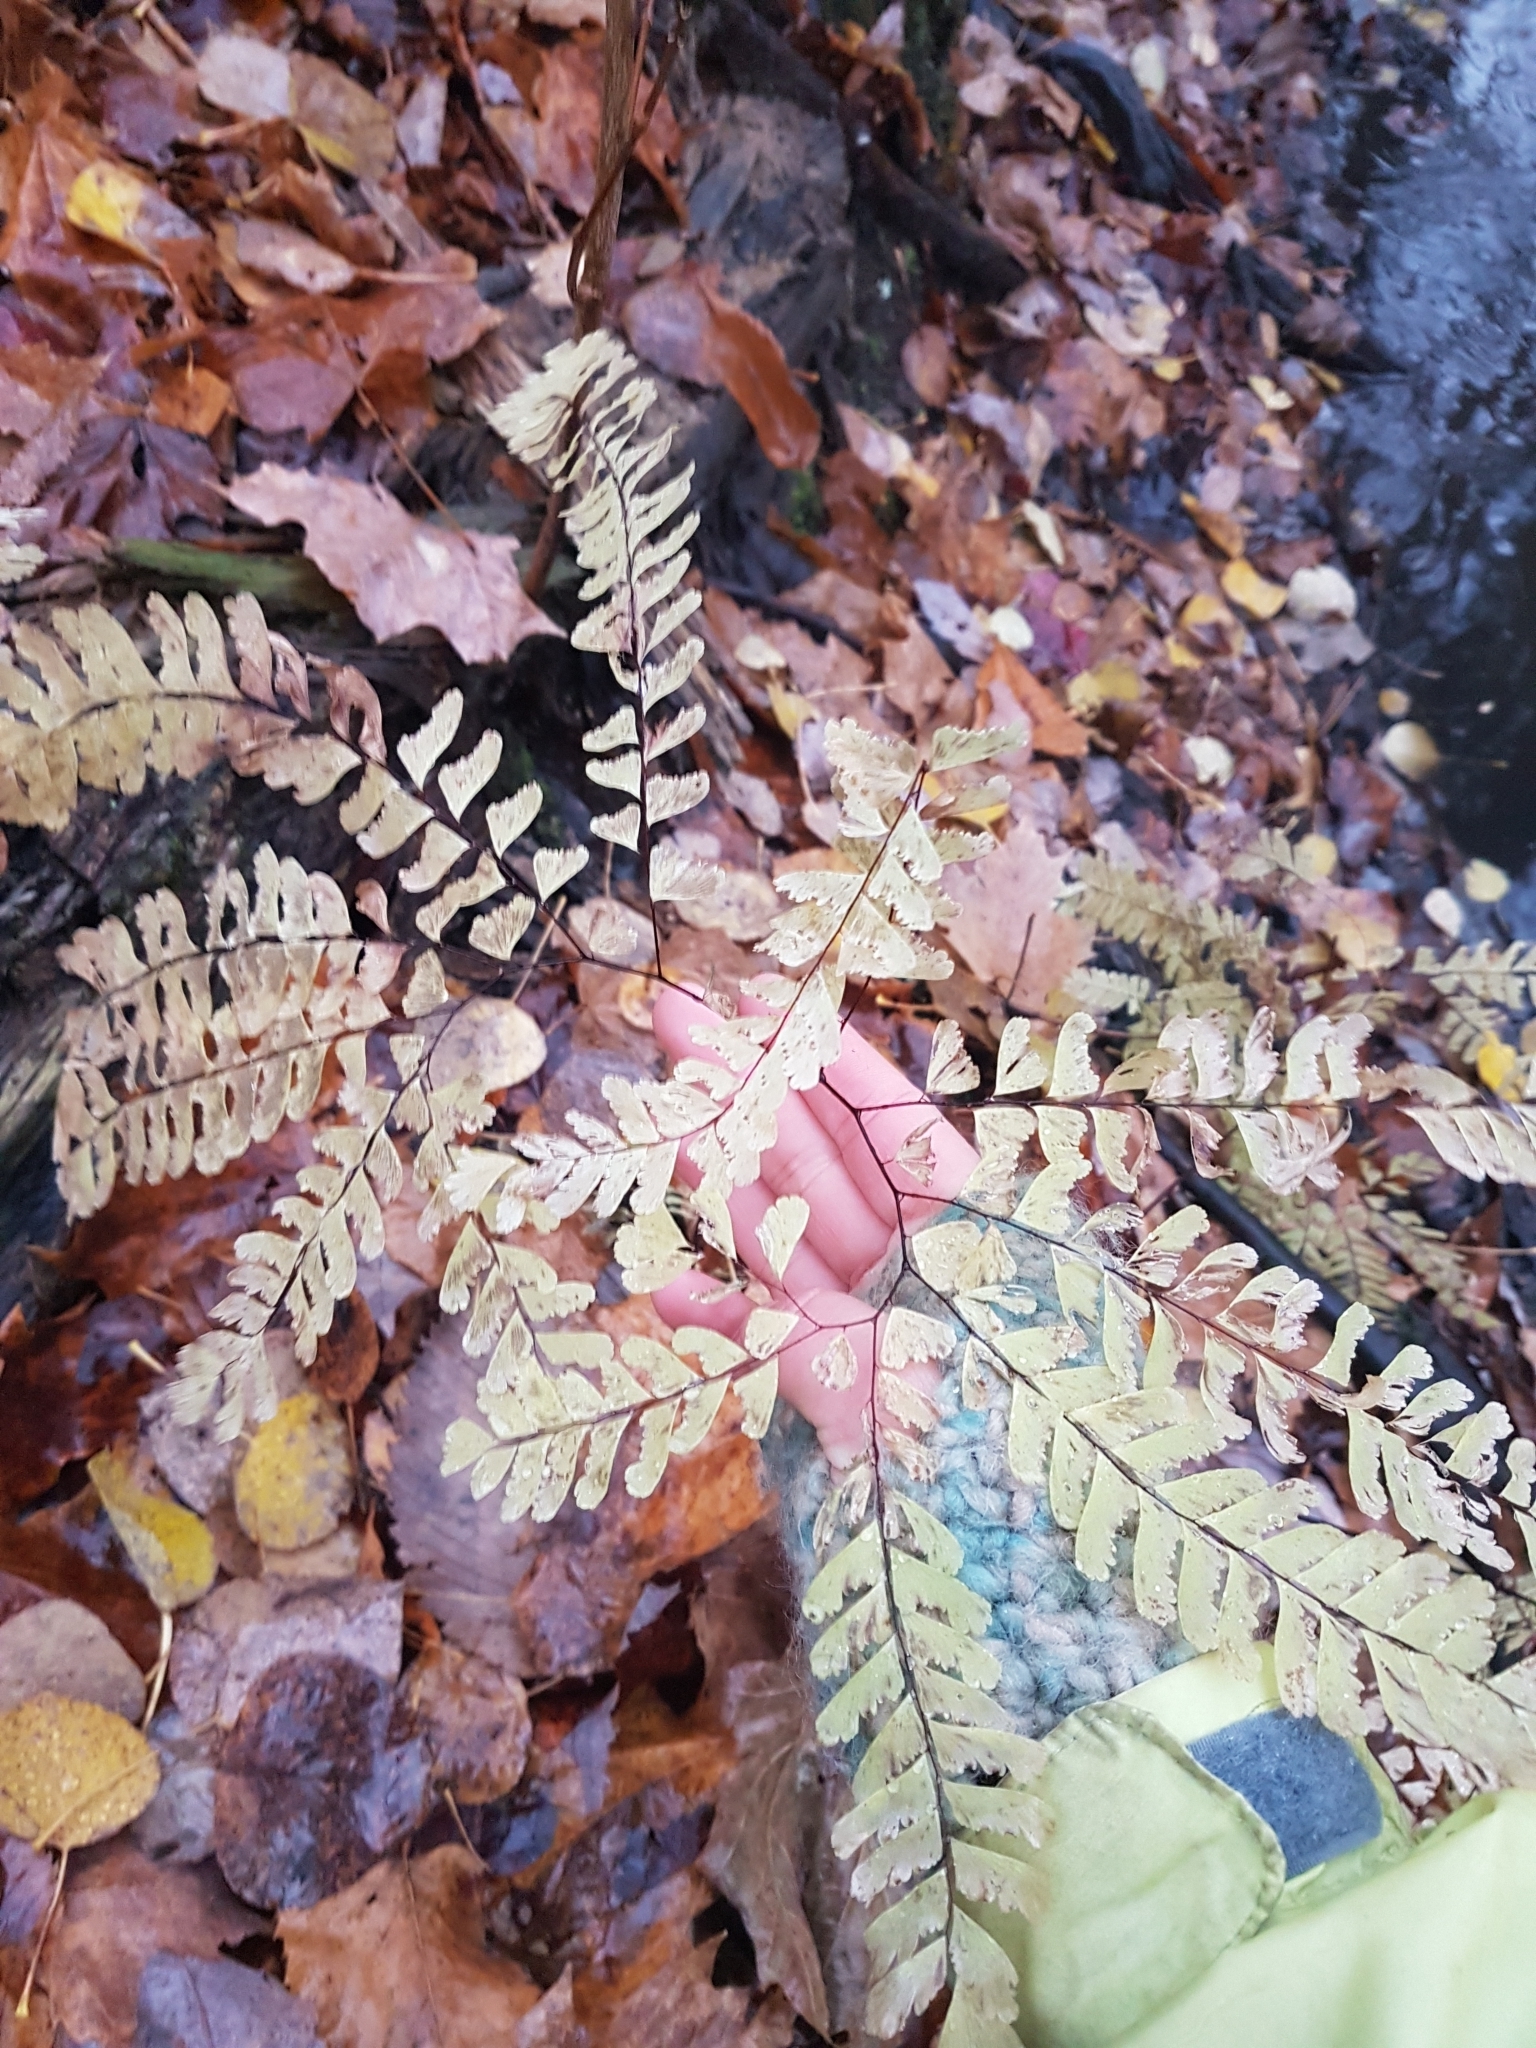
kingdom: Plantae
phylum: Tracheophyta
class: Polypodiopsida
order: Polypodiales
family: Pteridaceae
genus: Adiantum
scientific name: Adiantum pedatum
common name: Five-finger fern
